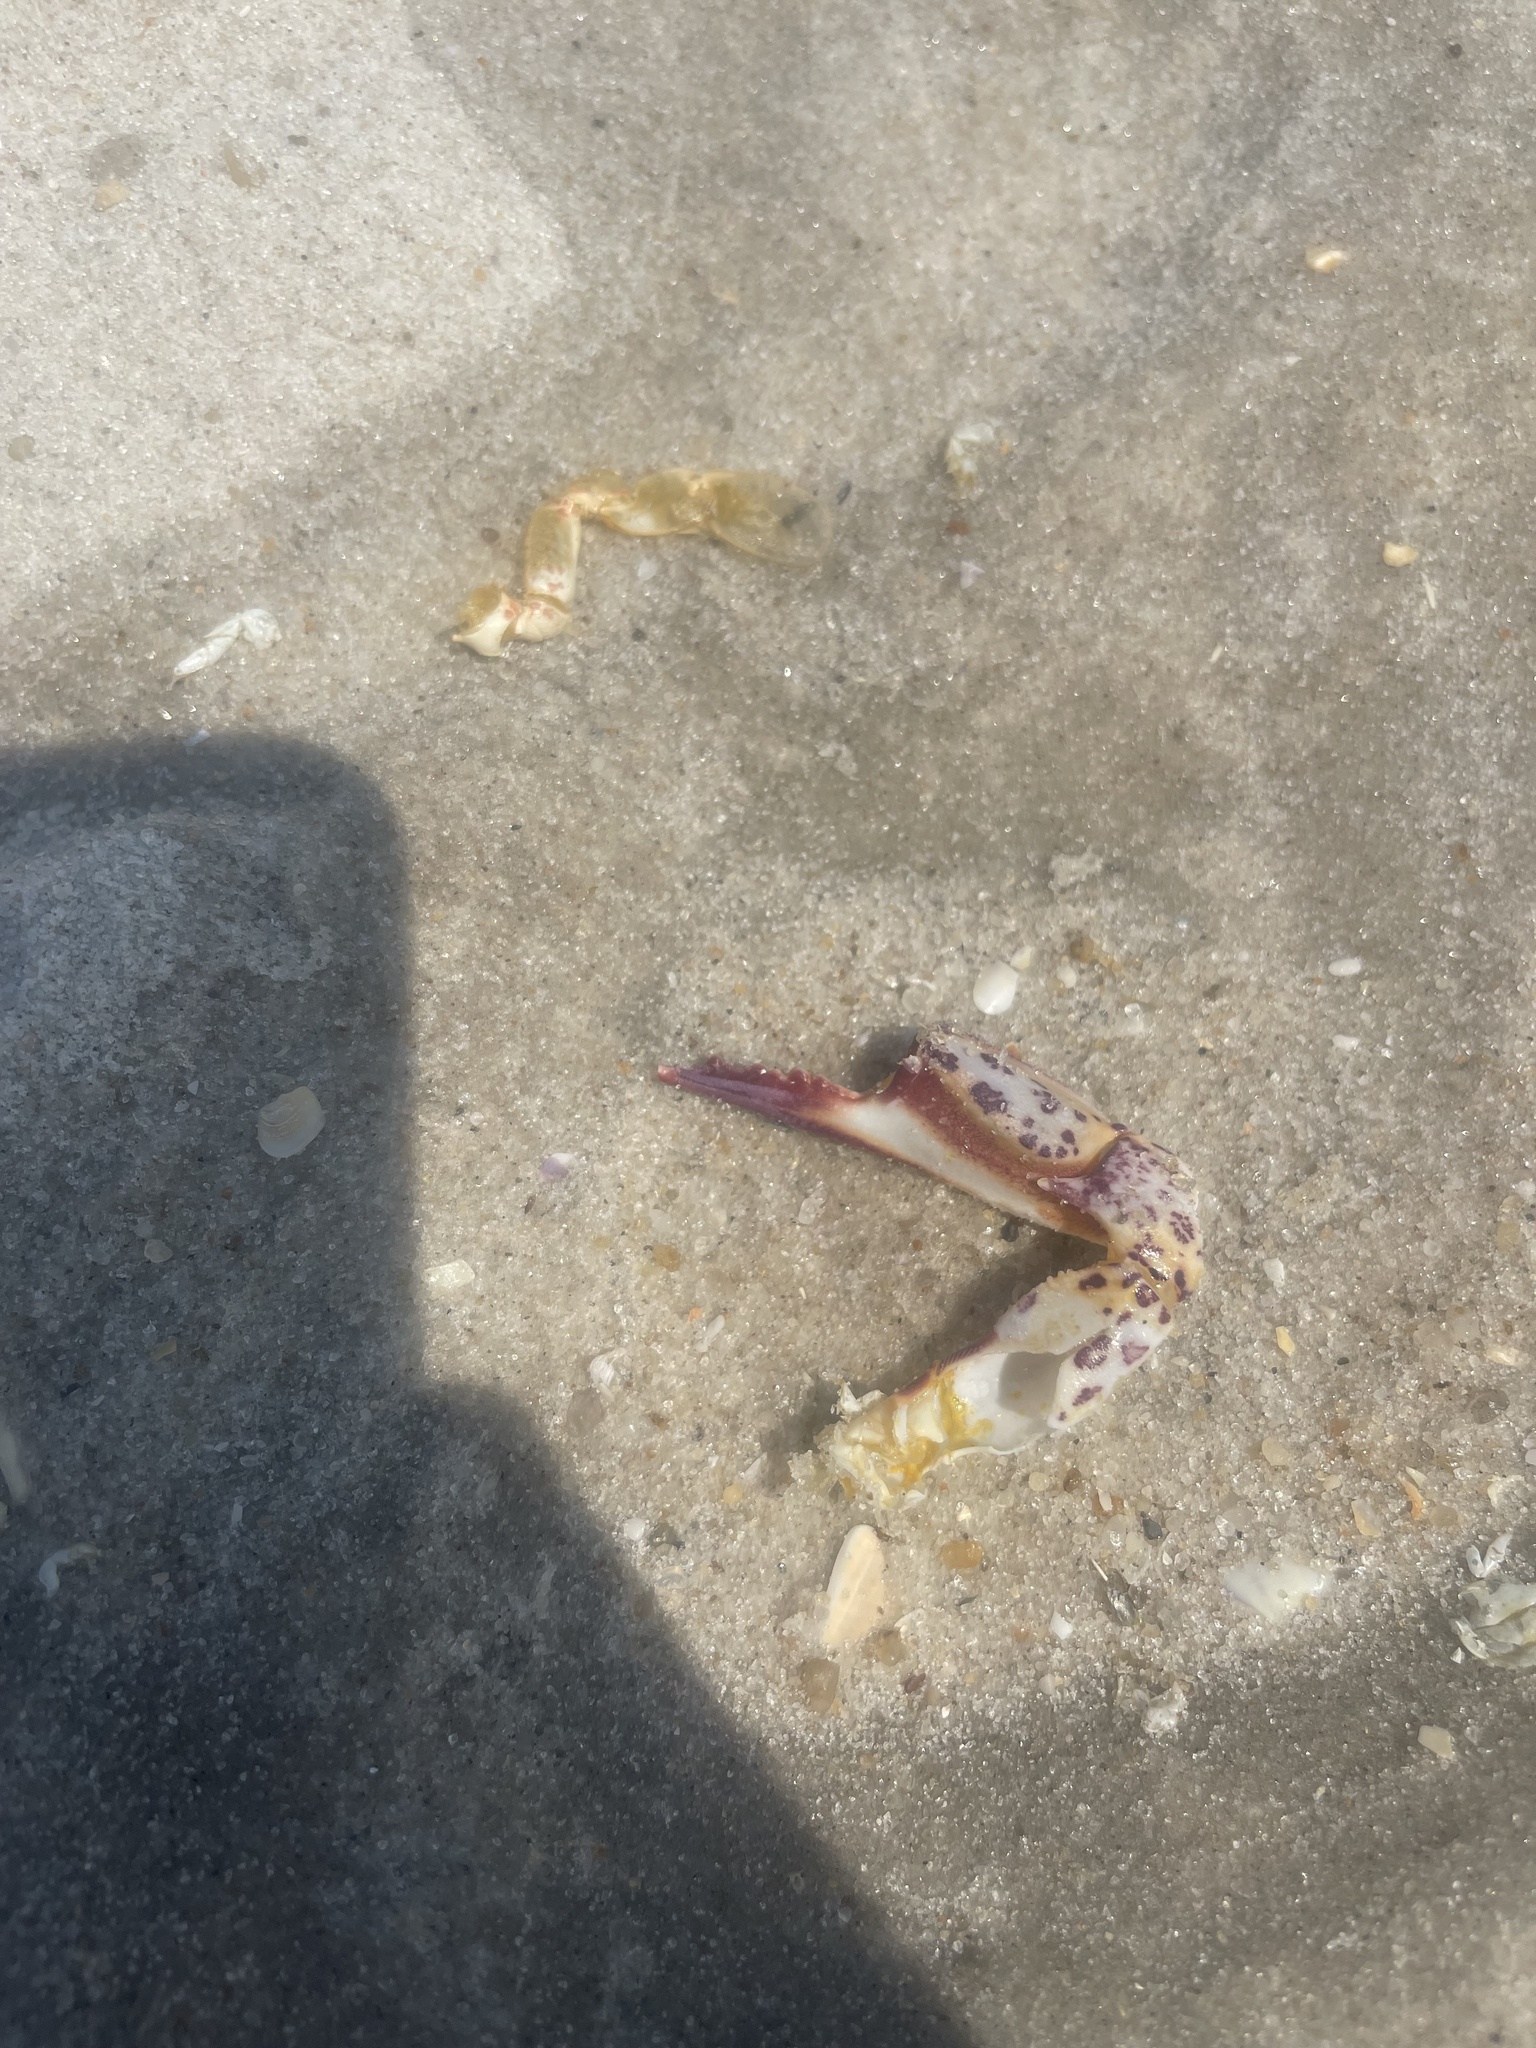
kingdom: Animalia
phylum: Arthropoda
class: Malacostraca
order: Decapoda
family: Ovalipidae
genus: Ovalipes
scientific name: Ovalipes ocellatus
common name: Lady crab
